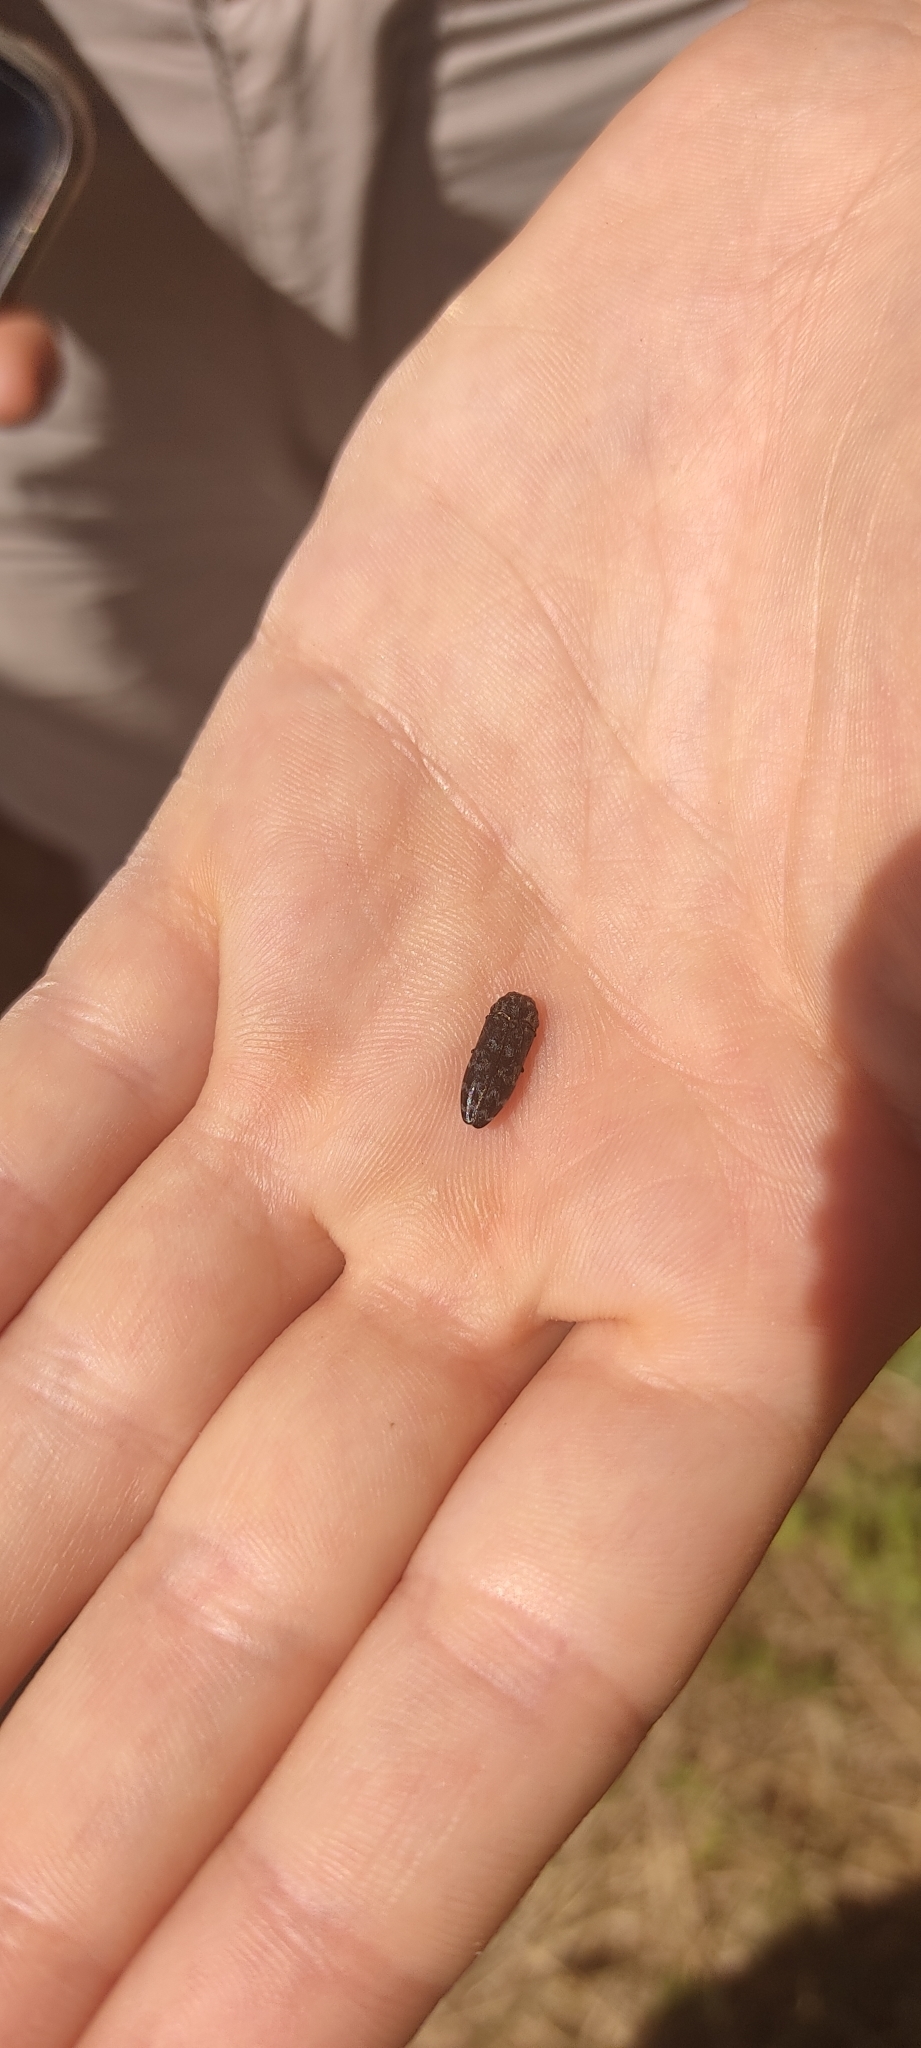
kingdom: Animalia
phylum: Arthropoda
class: Insecta
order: Coleoptera
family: Buprestidae
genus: Coraebus
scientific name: Coraebus rubi
